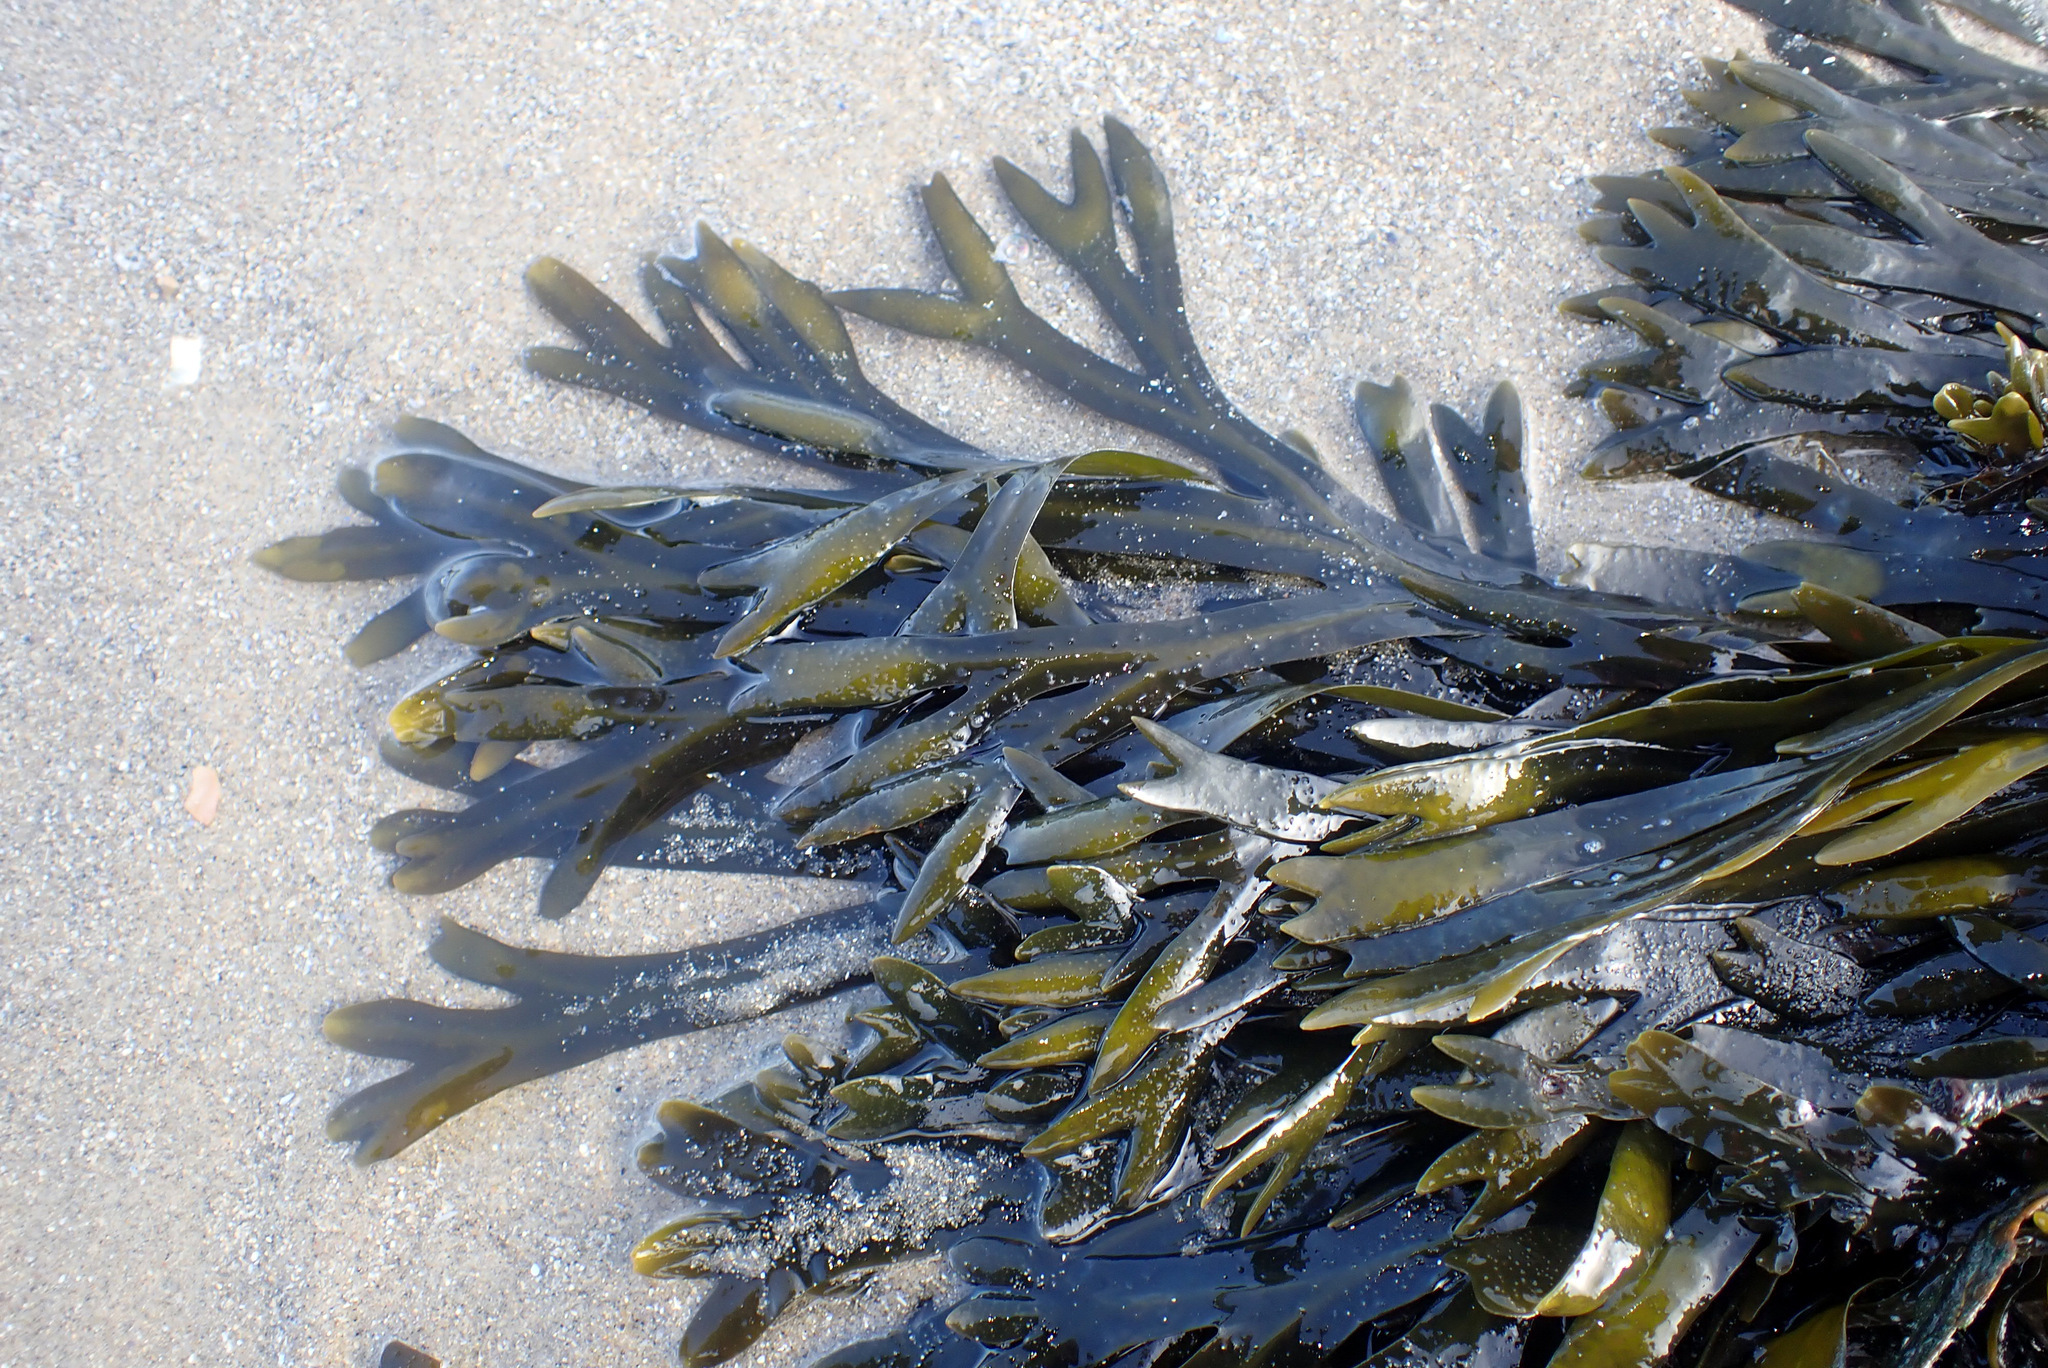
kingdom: Chromista
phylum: Ochrophyta
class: Phaeophyceae
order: Fucales
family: Fucaceae
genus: Ascophyllum
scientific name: Ascophyllum nodosum
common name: Knotted wrack
